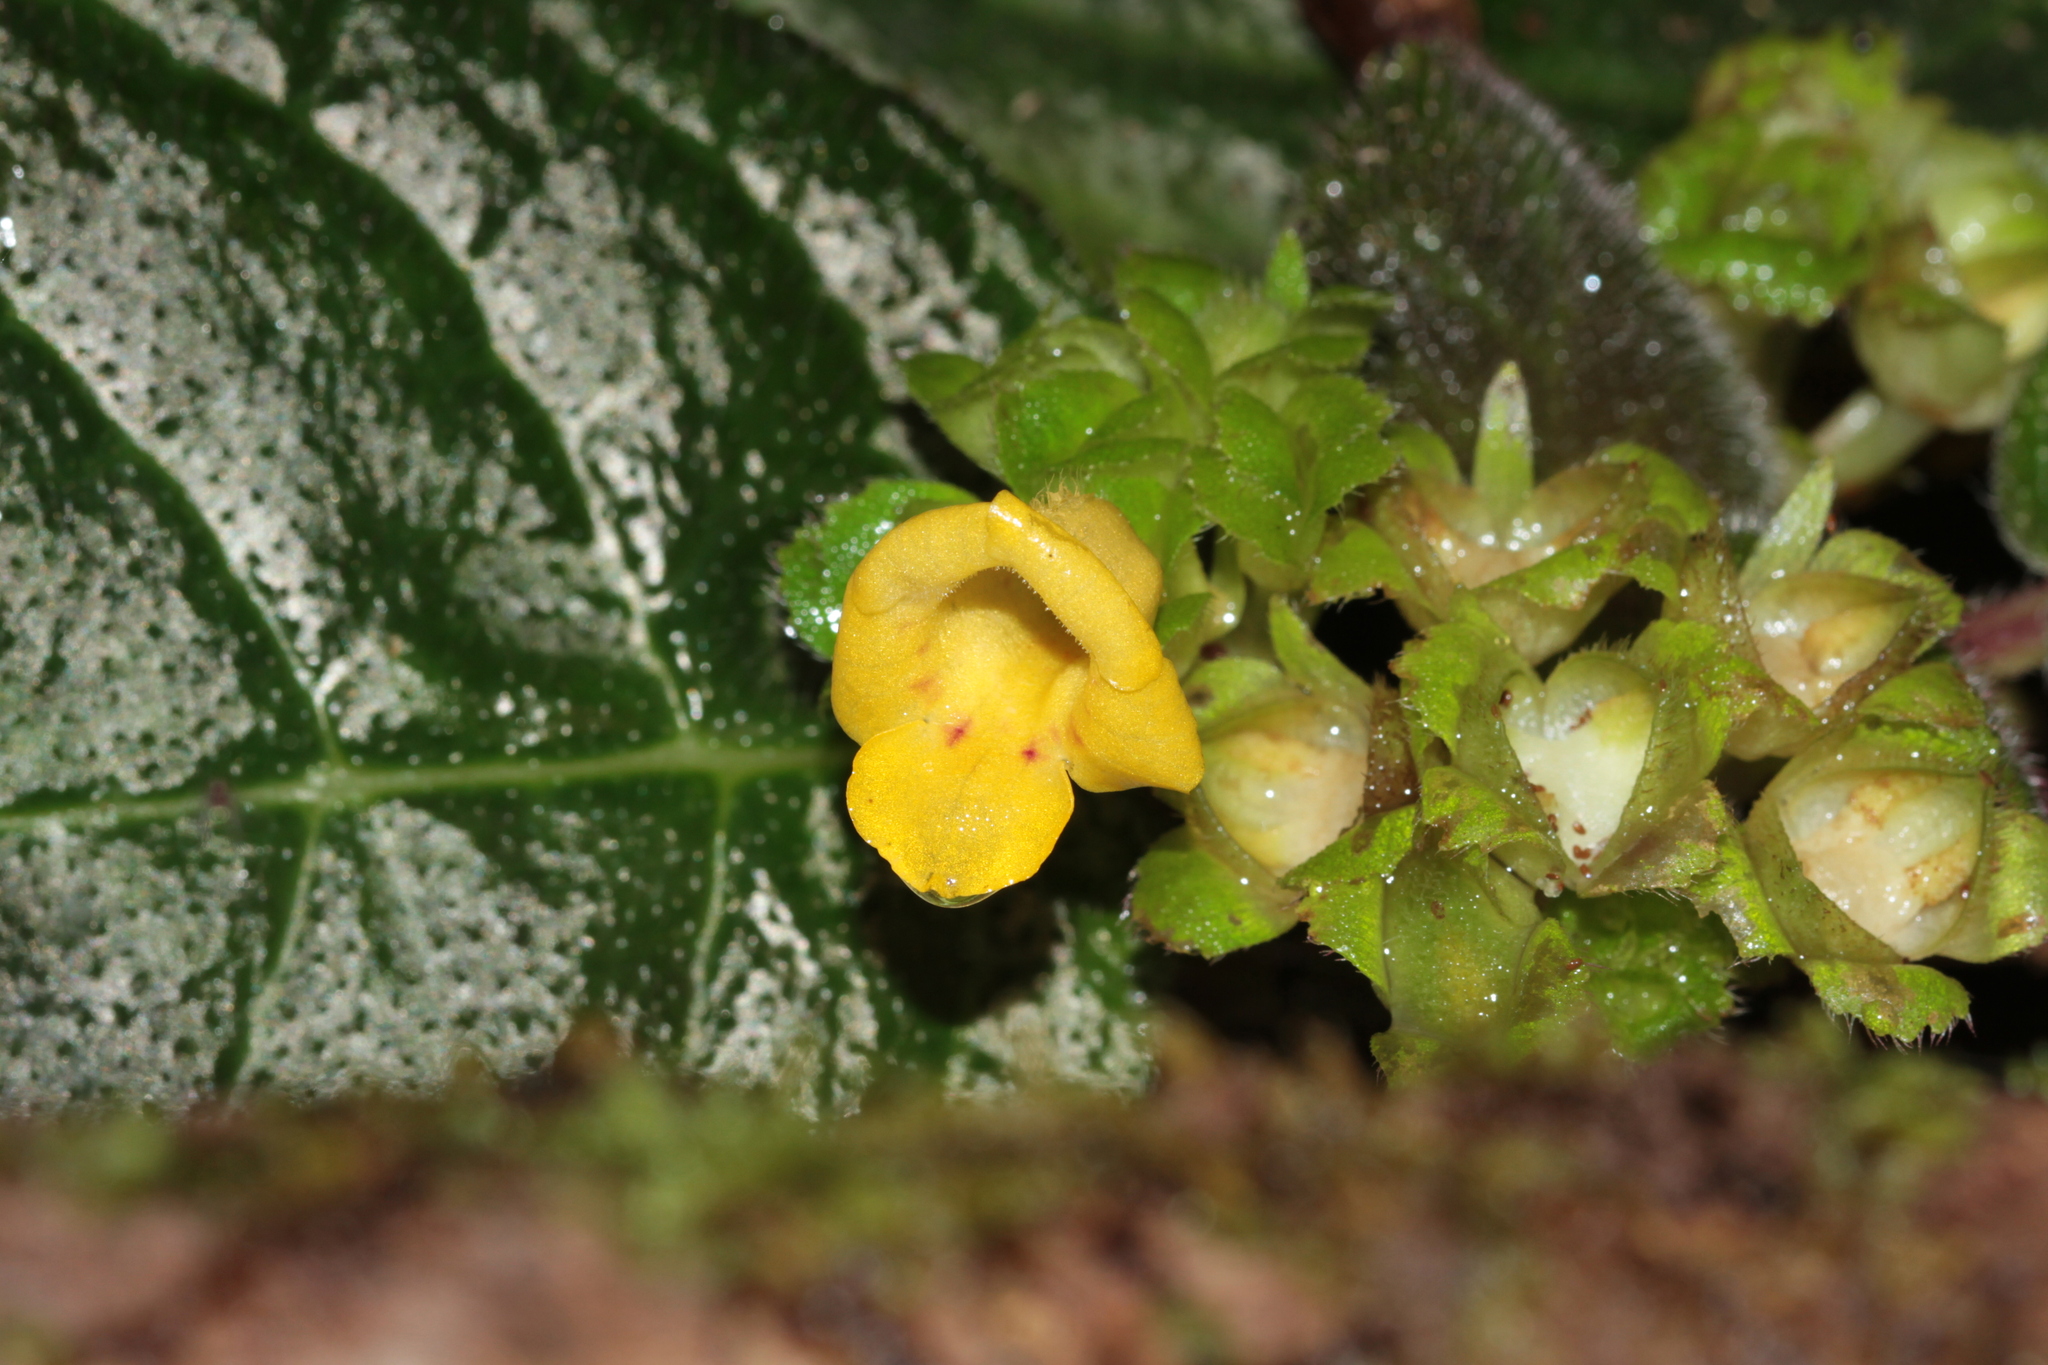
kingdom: Plantae
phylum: Tracheophyta
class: Magnoliopsida
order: Lamiales
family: Gesneriaceae
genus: Christopheria
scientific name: Christopheria xantha
